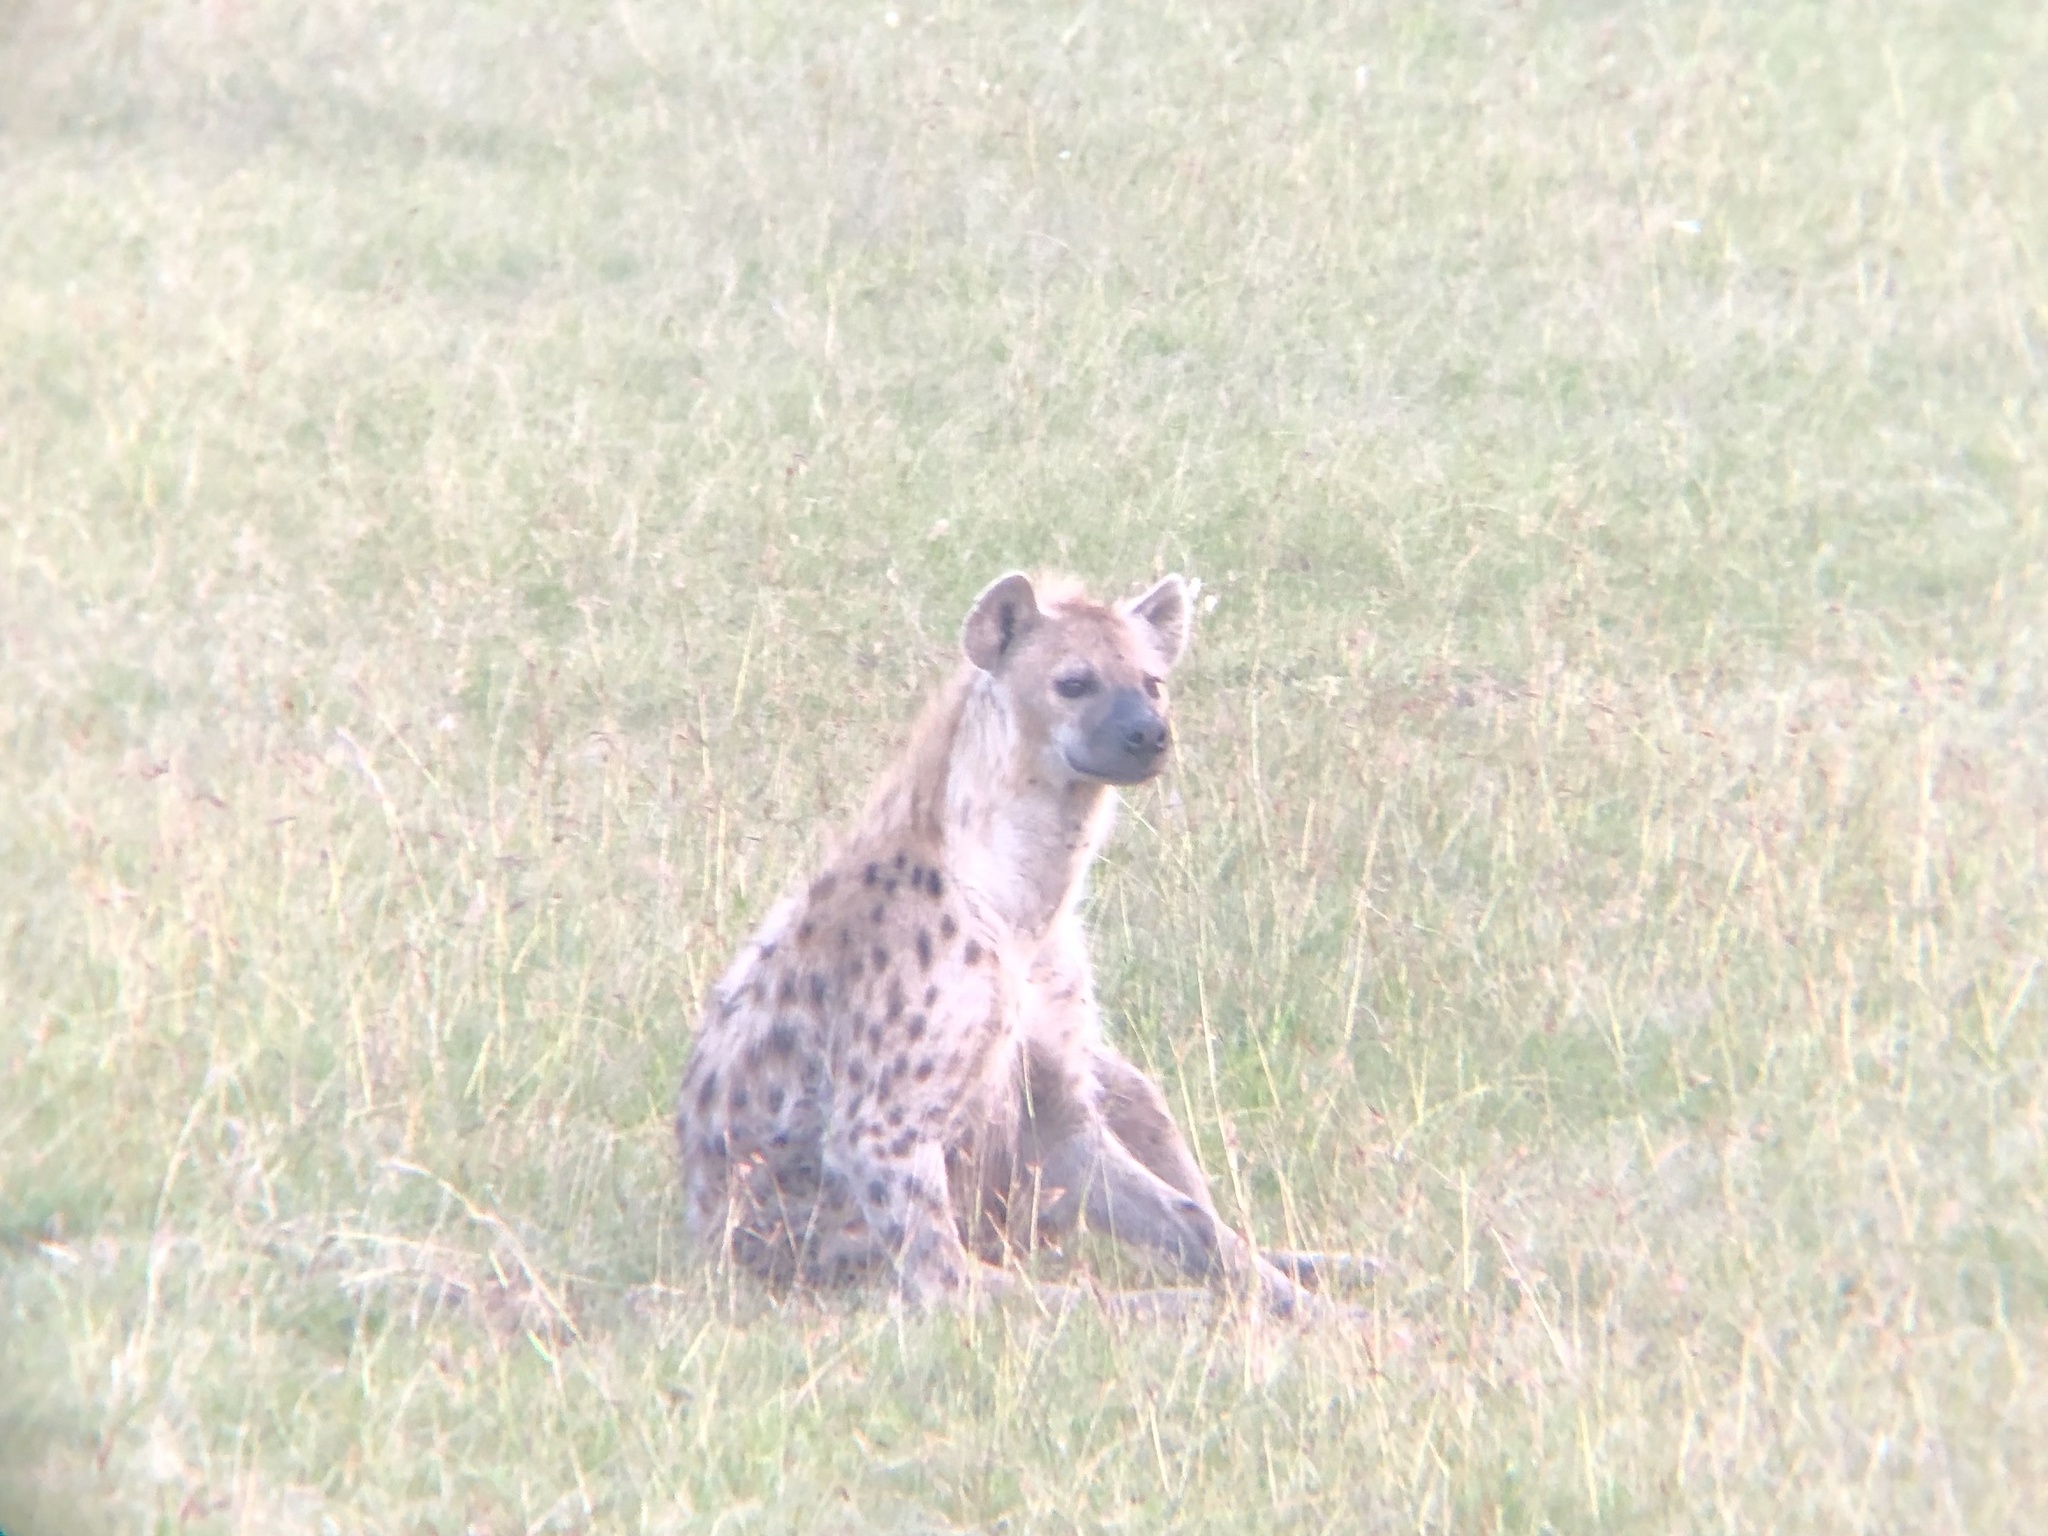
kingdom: Animalia
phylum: Chordata
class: Mammalia
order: Carnivora
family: Hyaenidae
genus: Crocuta
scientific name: Crocuta crocuta
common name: Spotted hyaena
